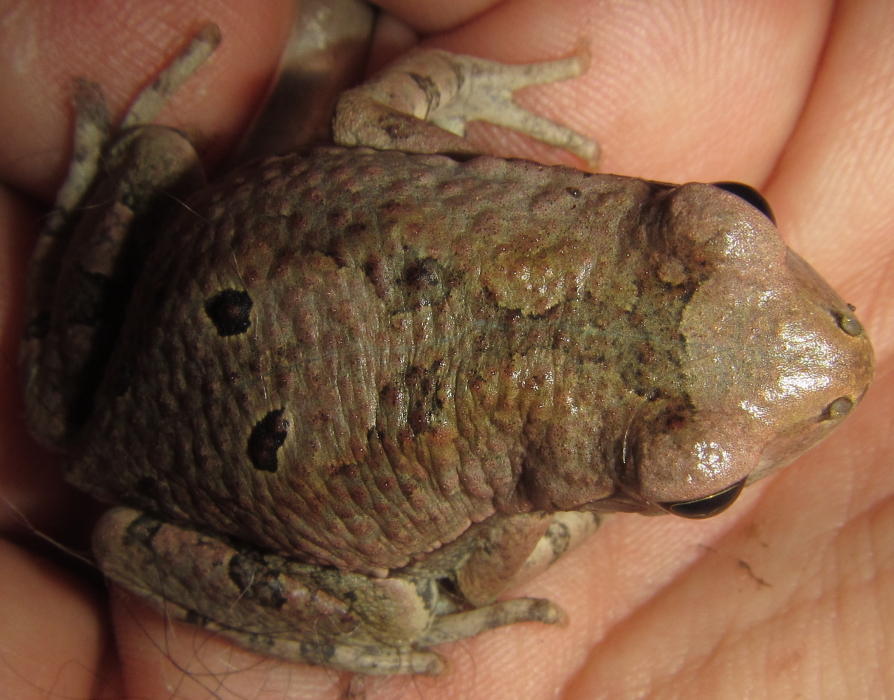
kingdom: Animalia
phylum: Chordata
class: Amphibia
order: Anura
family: Bufonidae
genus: Schismaderma
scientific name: Schismaderma carens
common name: African split-skin toad
